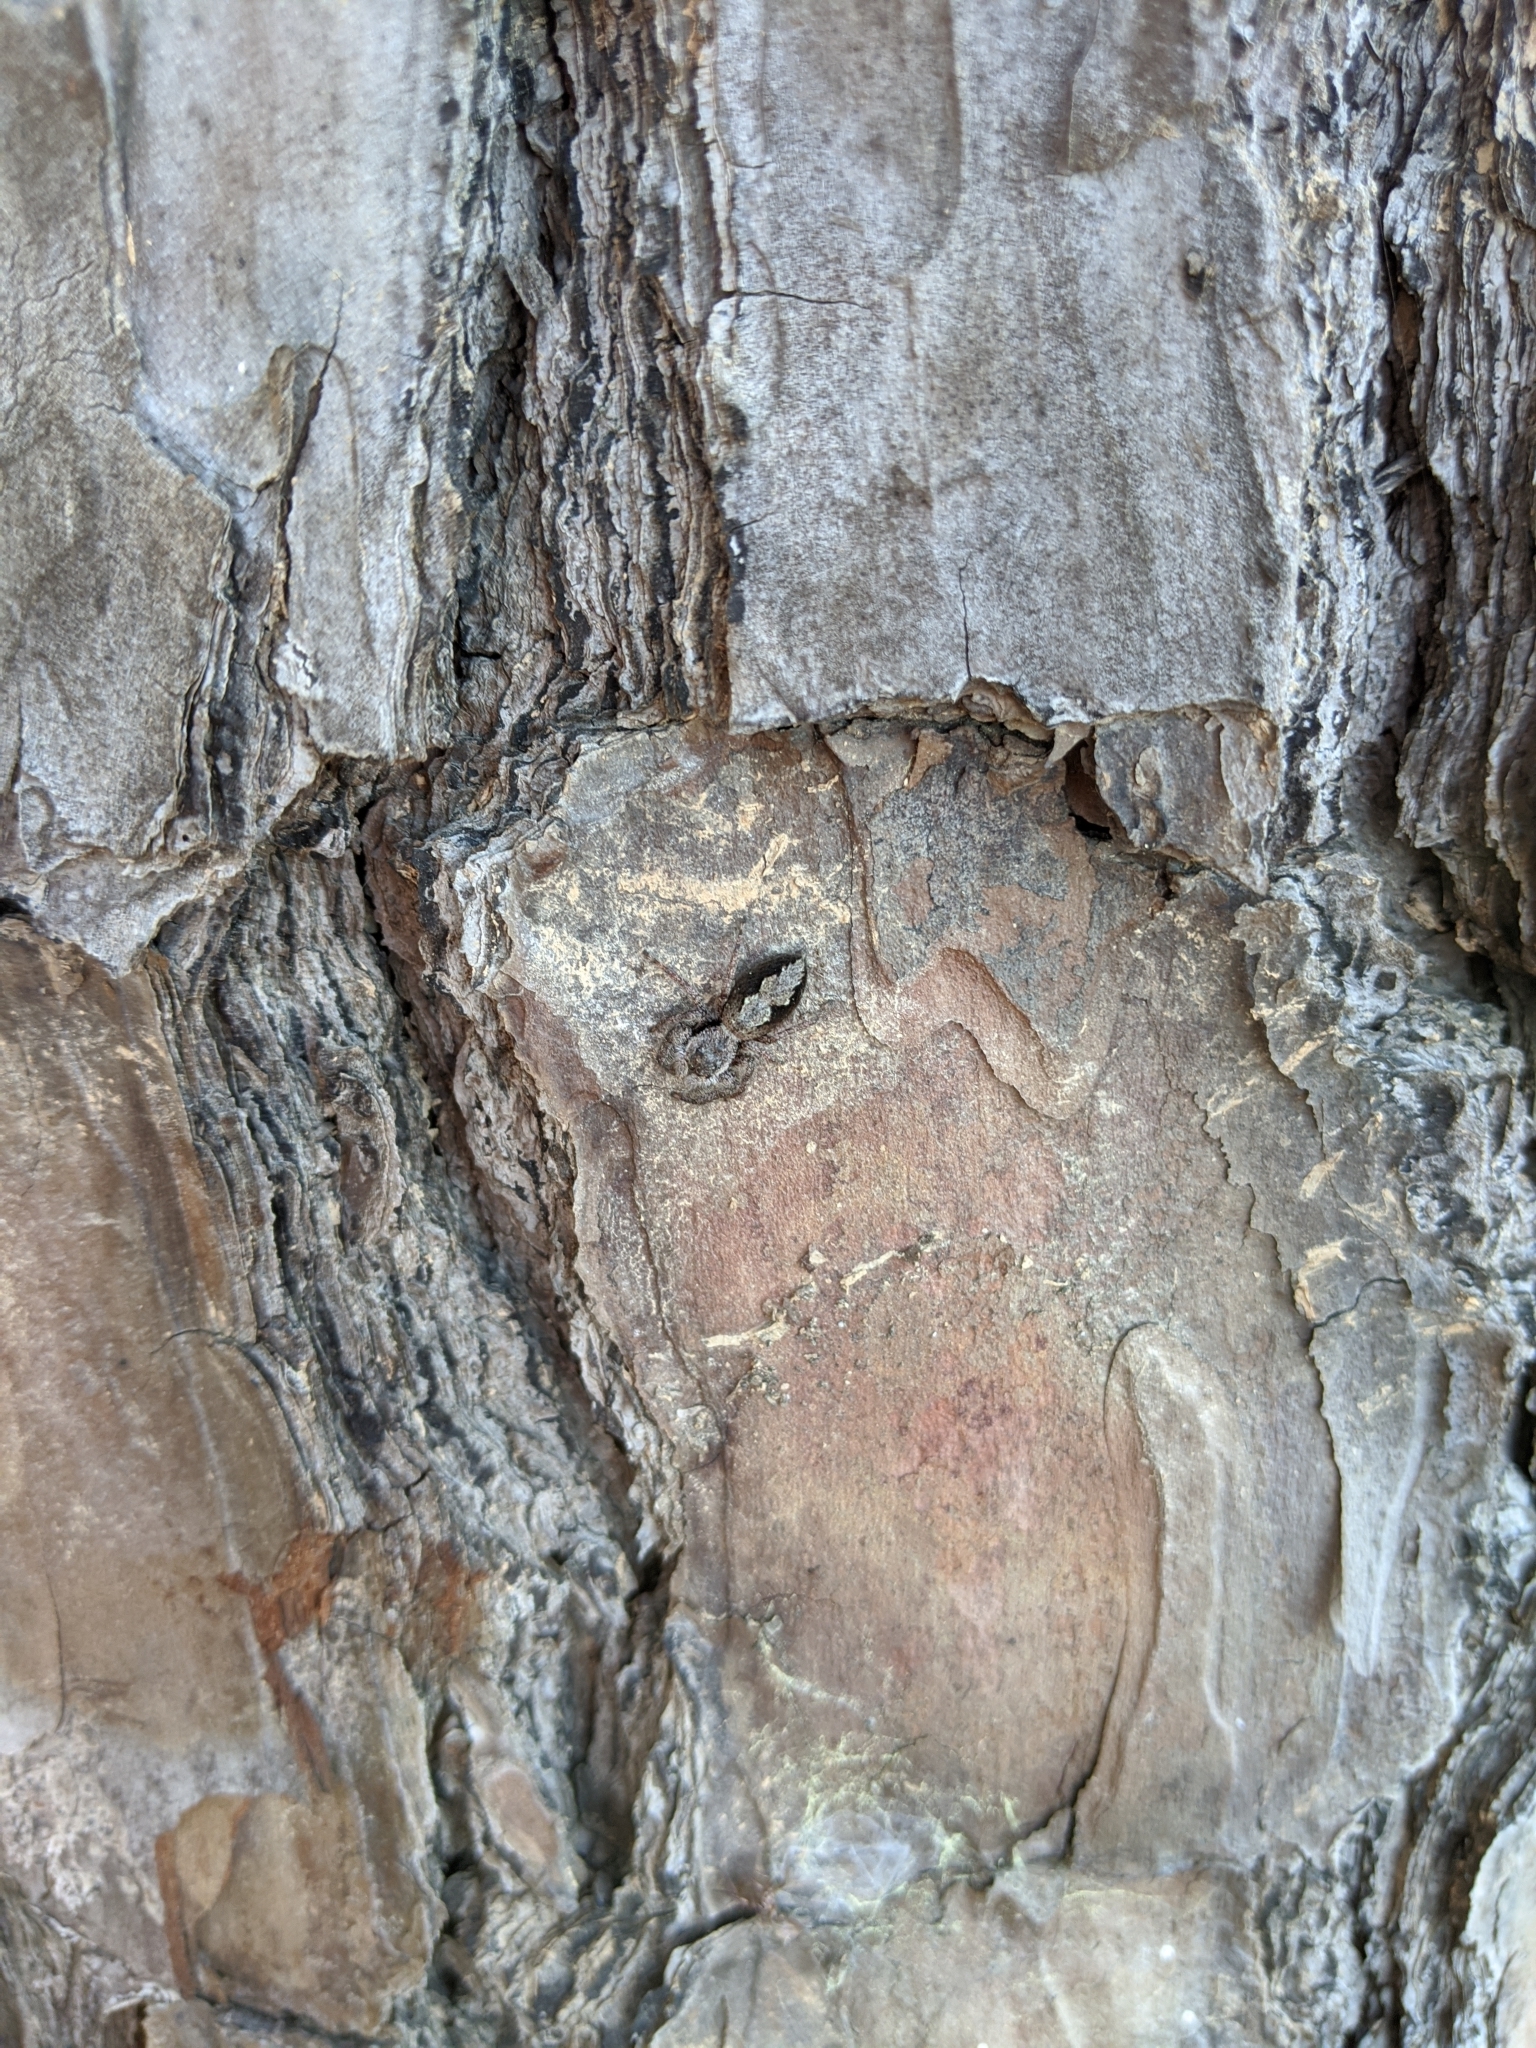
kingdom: Animalia
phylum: Arthropoda
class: Arachnida
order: Araneae
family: Salticidae
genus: Platycryptus
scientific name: Platycryptus undatus
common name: Tan jumping spider
